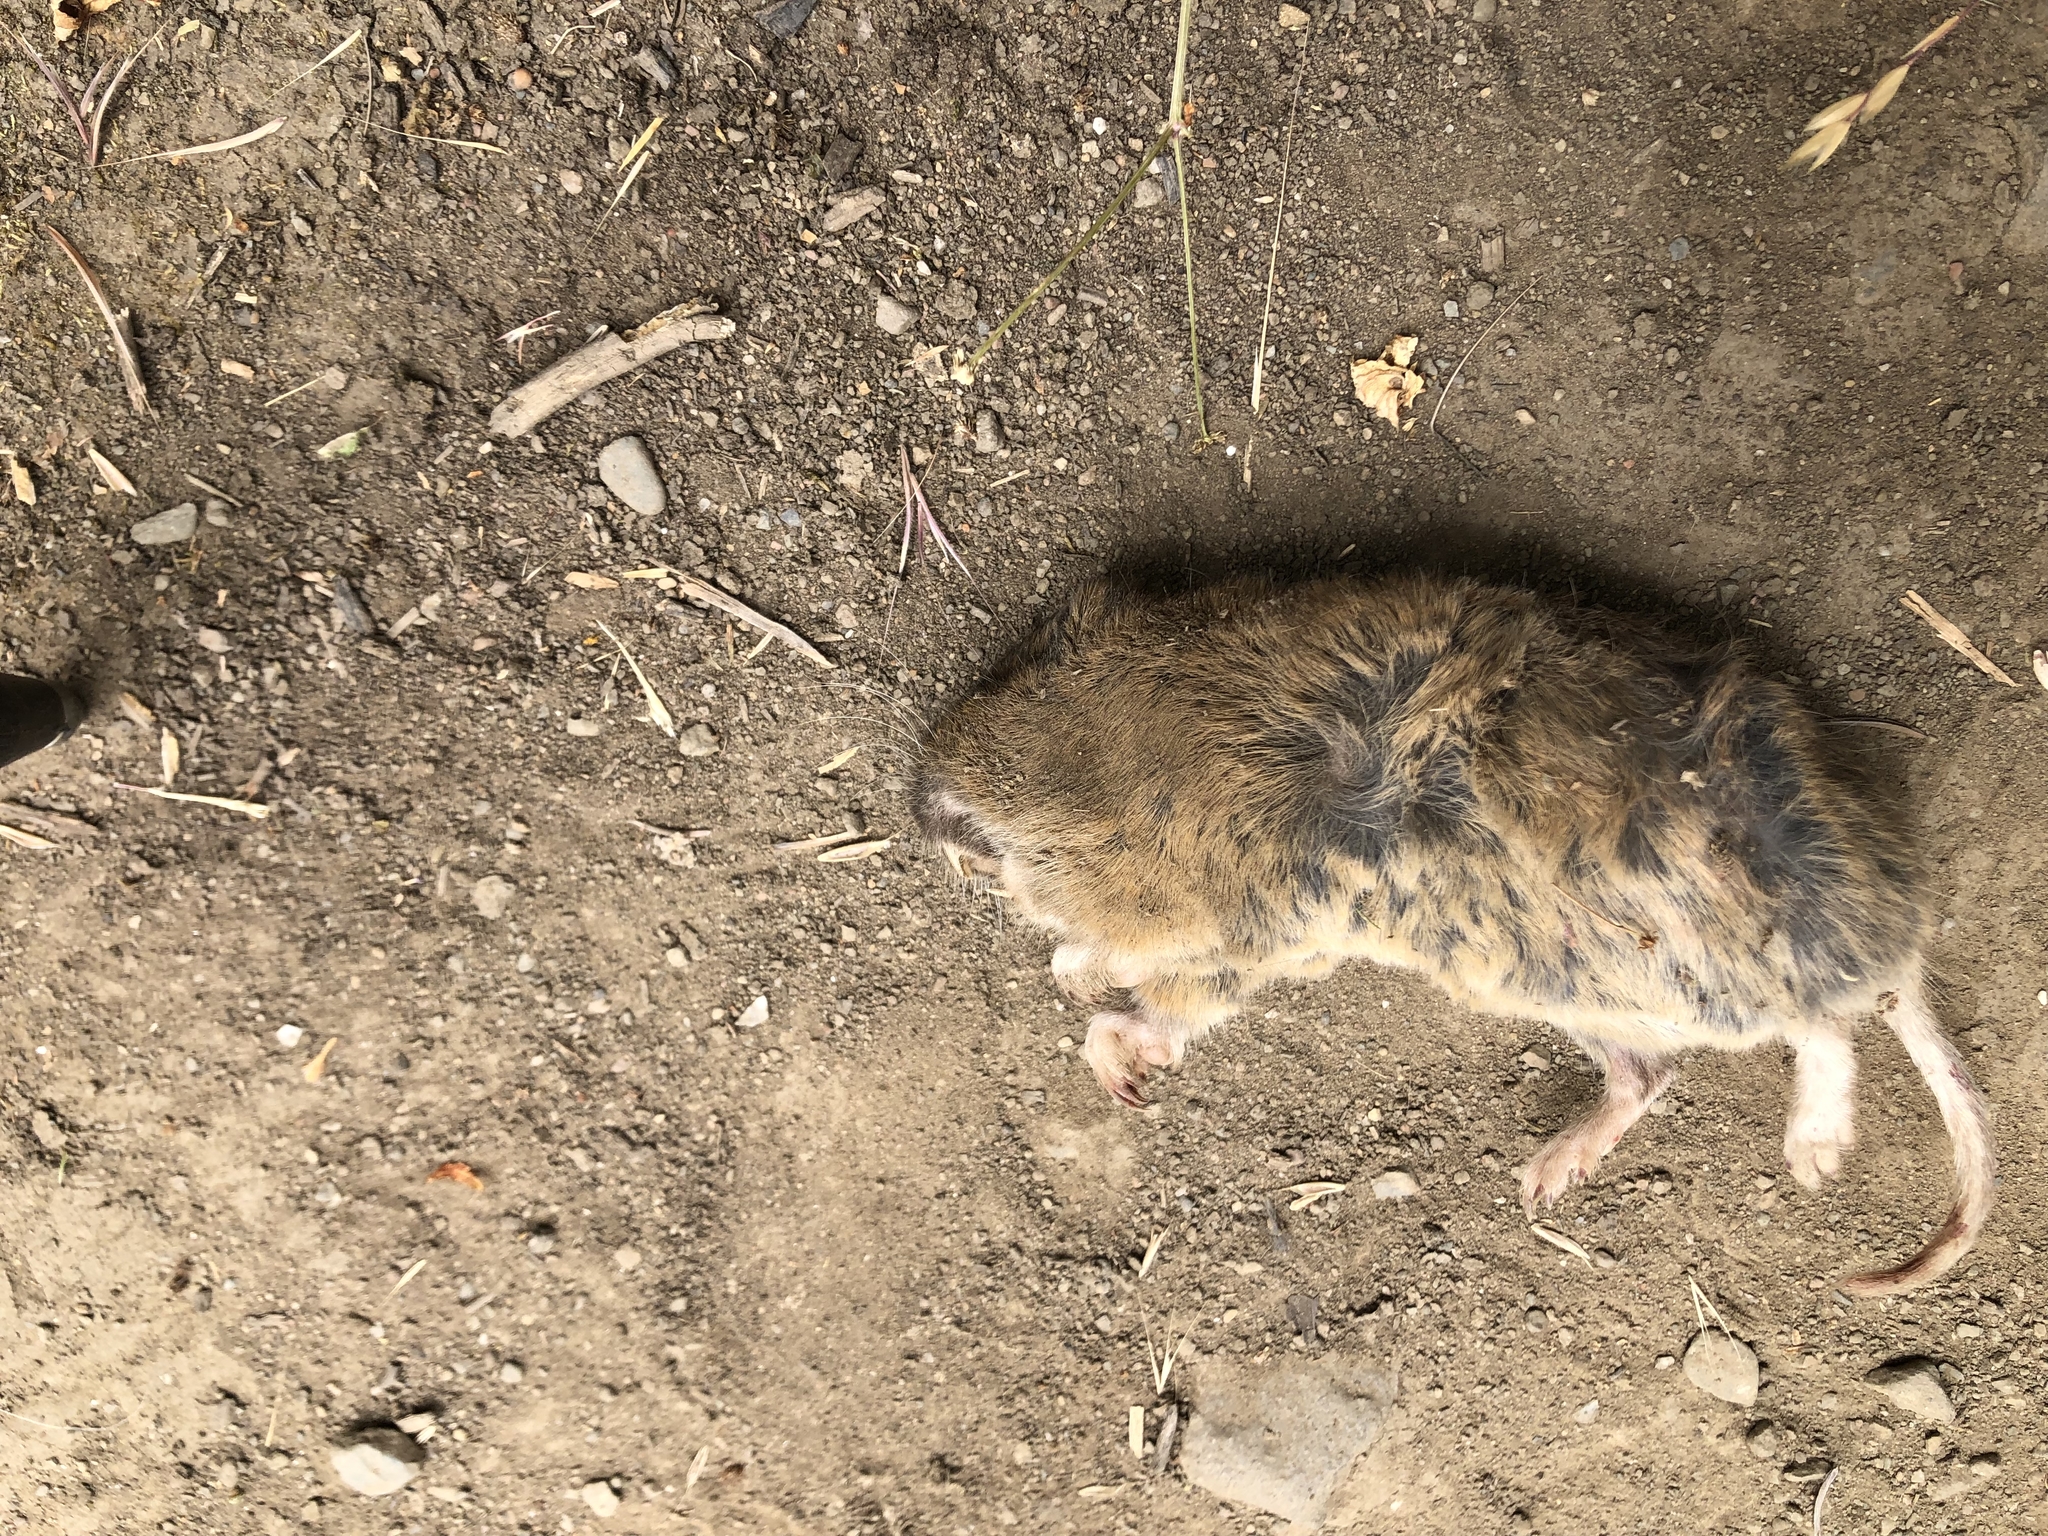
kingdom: Animalia
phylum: Chordata
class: Mammalia
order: Rodentia
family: Geomyidae
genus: Thomomys
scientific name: Thomomys bottae
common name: Botta's pocket gopher
